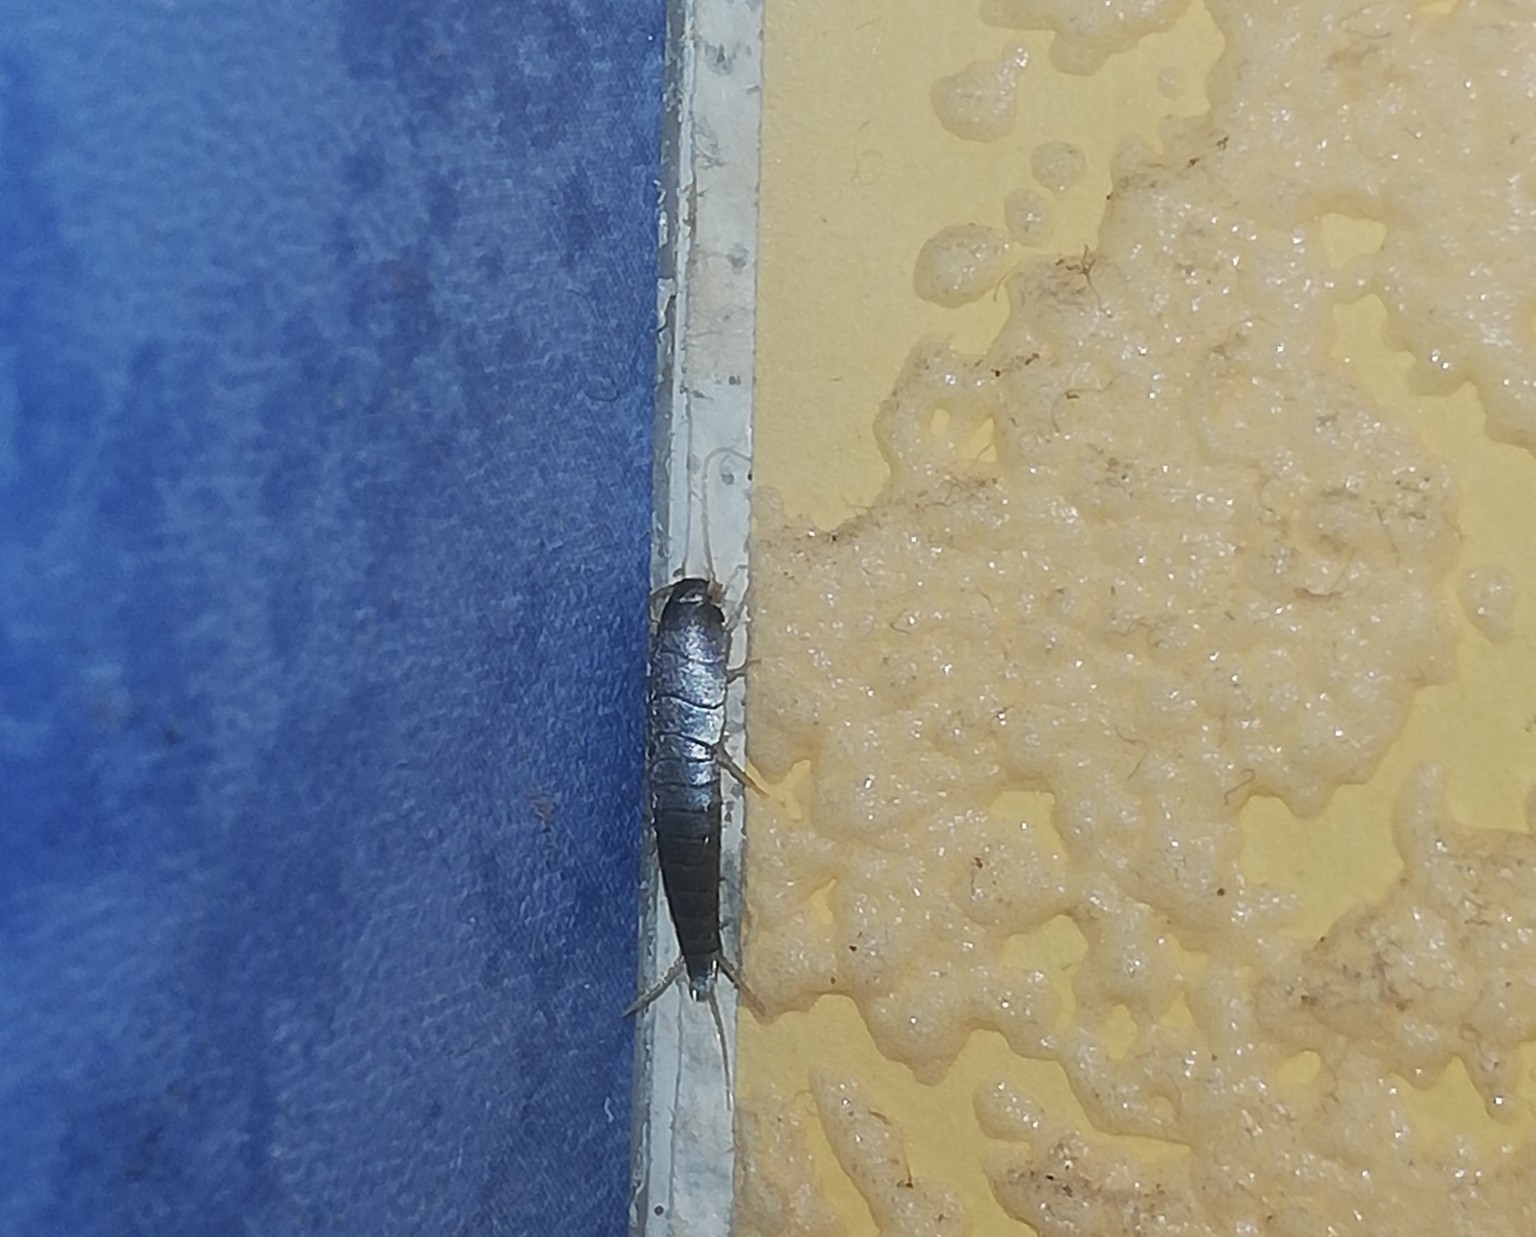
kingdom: Animalia
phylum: Arthropoda
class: Insecta
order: Zygentoma
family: Lepismatidae
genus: Lepisma
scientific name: Lepisma saccharinum
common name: Silverfish
